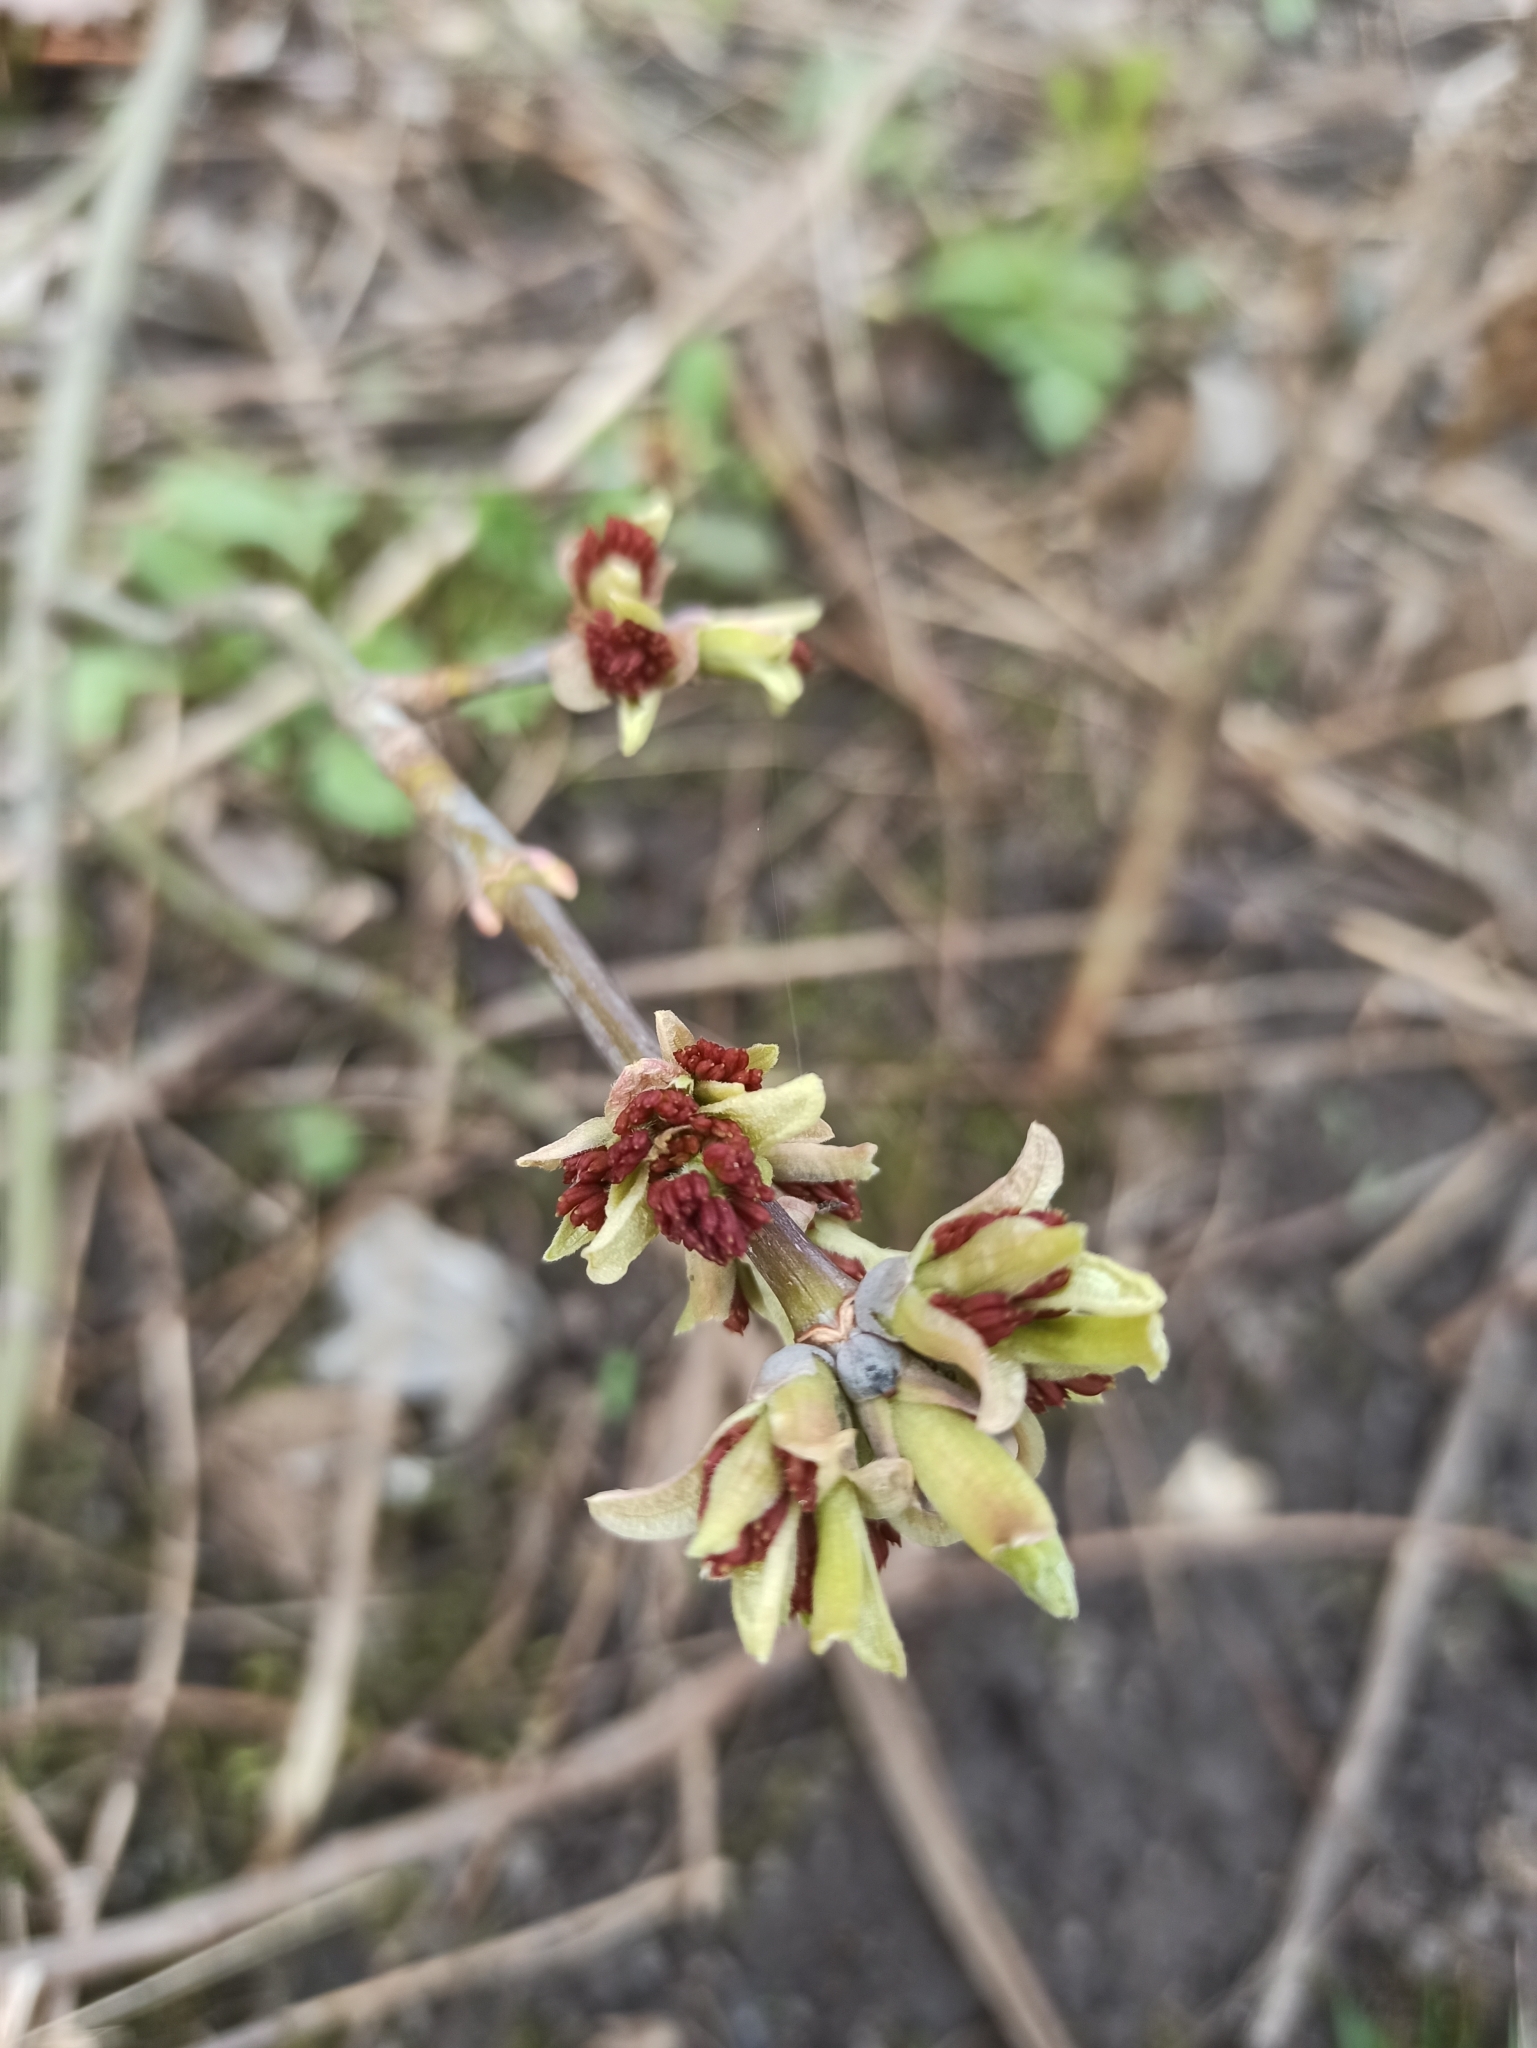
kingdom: Plantae
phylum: Tracheophyta
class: Magnoliopsida
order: Sapindales
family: Sapindaceae
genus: Acer
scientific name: Acer negundo
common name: Ashleaf maple
